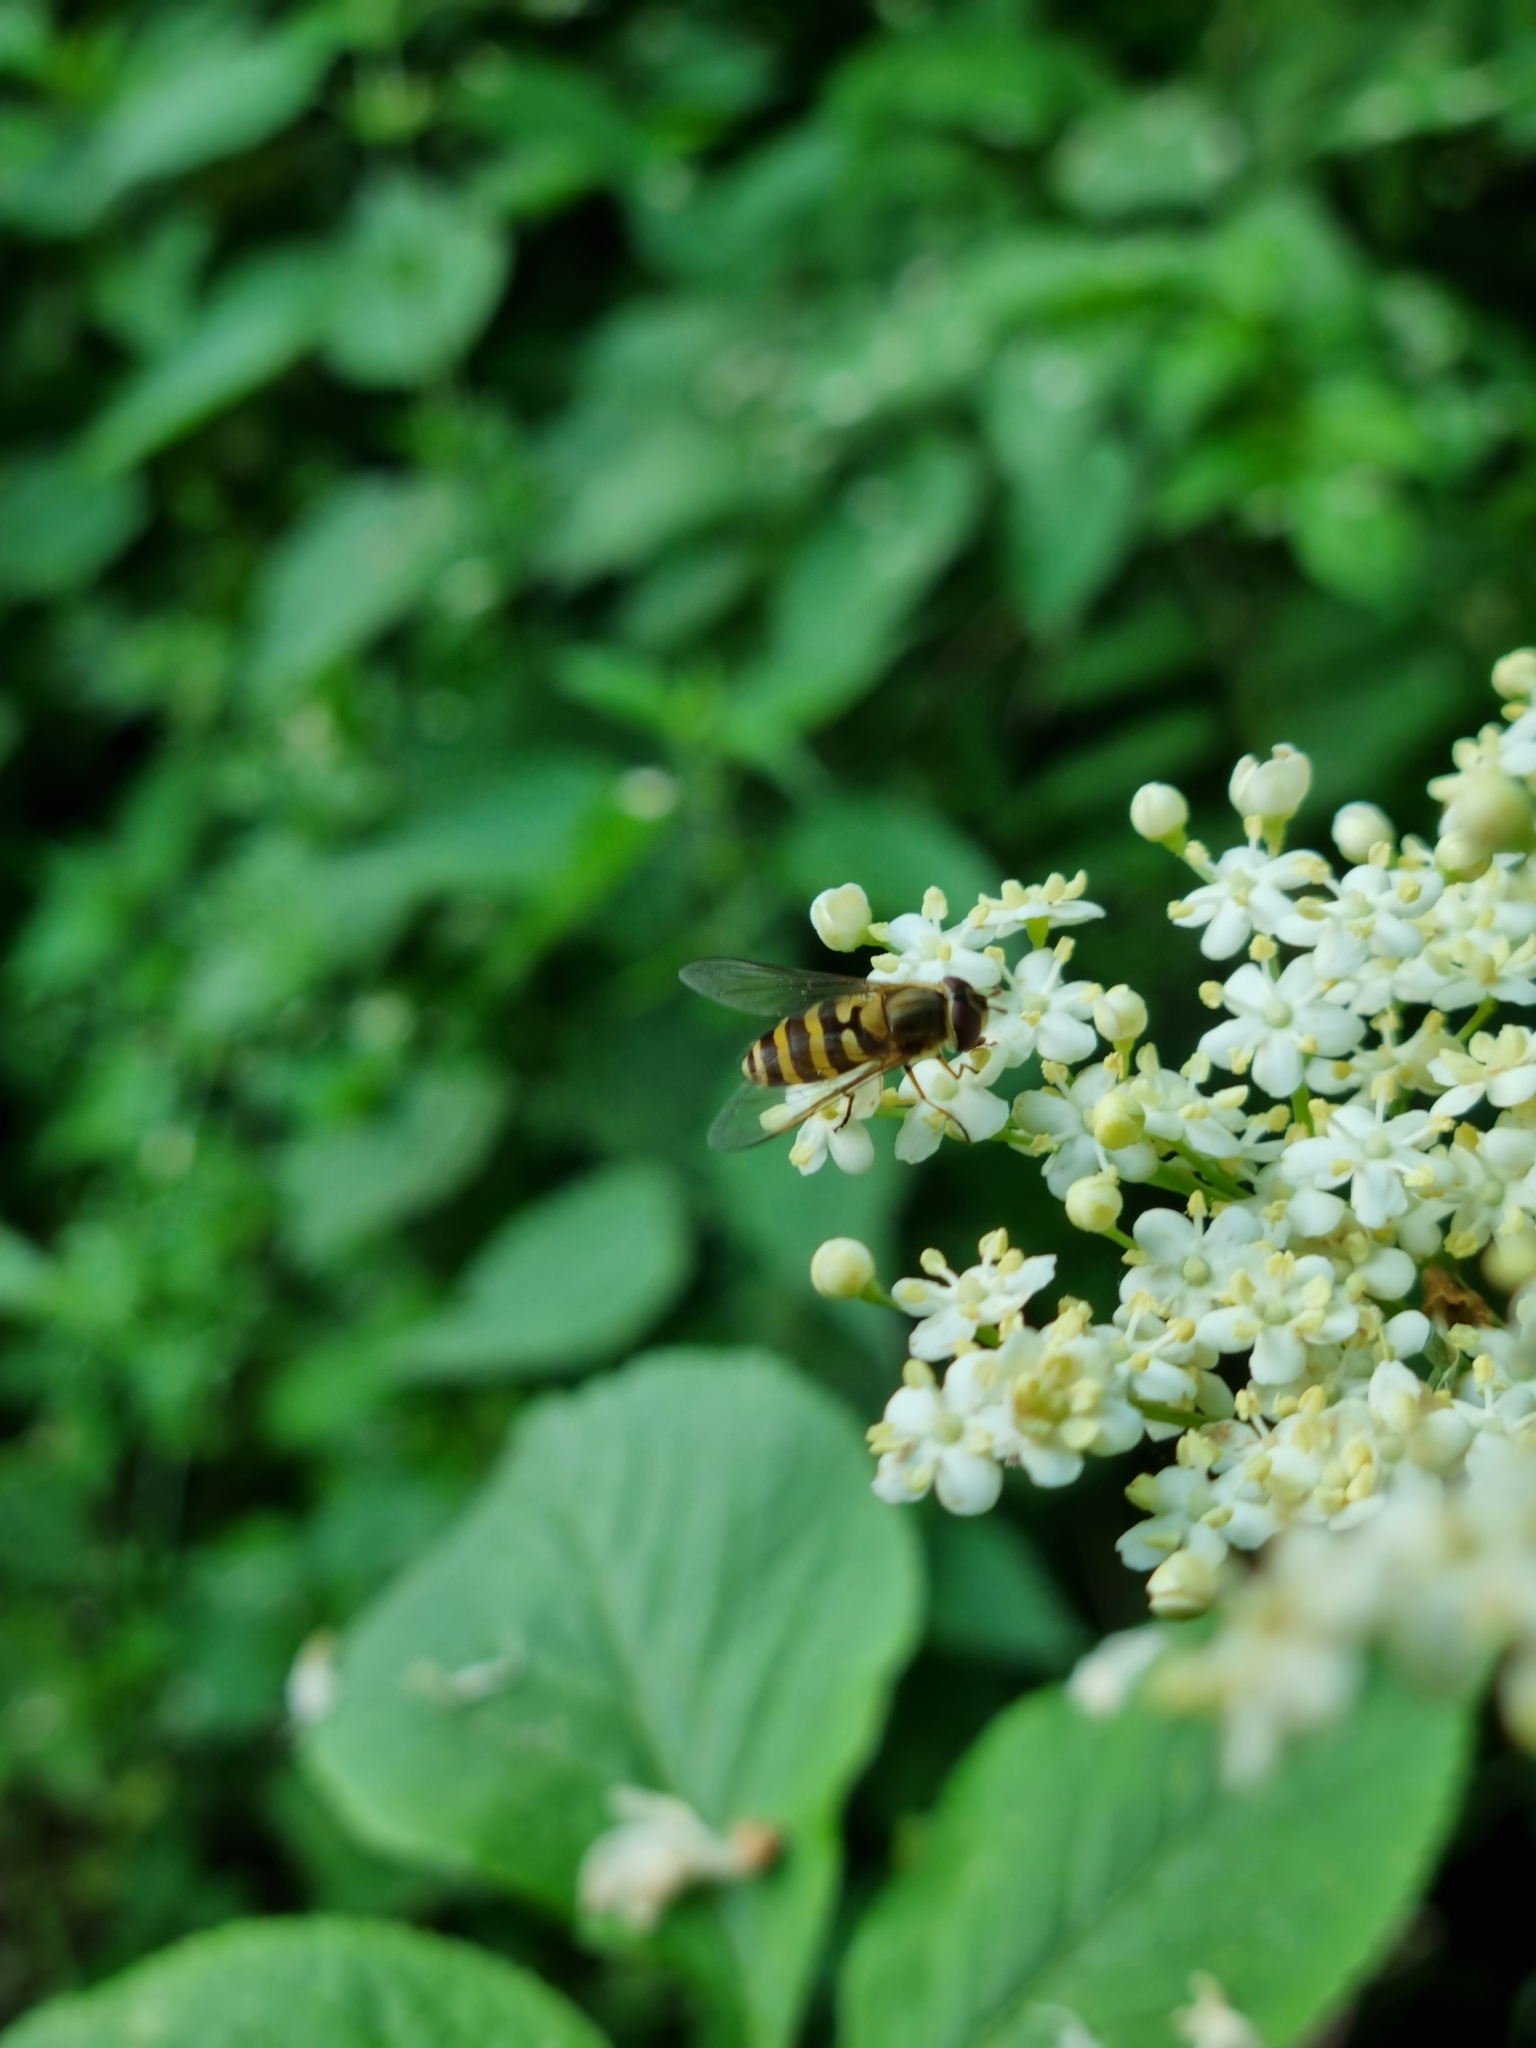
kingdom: Animalia
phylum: Arthropoda
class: Insecta
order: Diptera
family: Syrphidae
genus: Syrphus
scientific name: Syrphus ribesii
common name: Common flower fly
